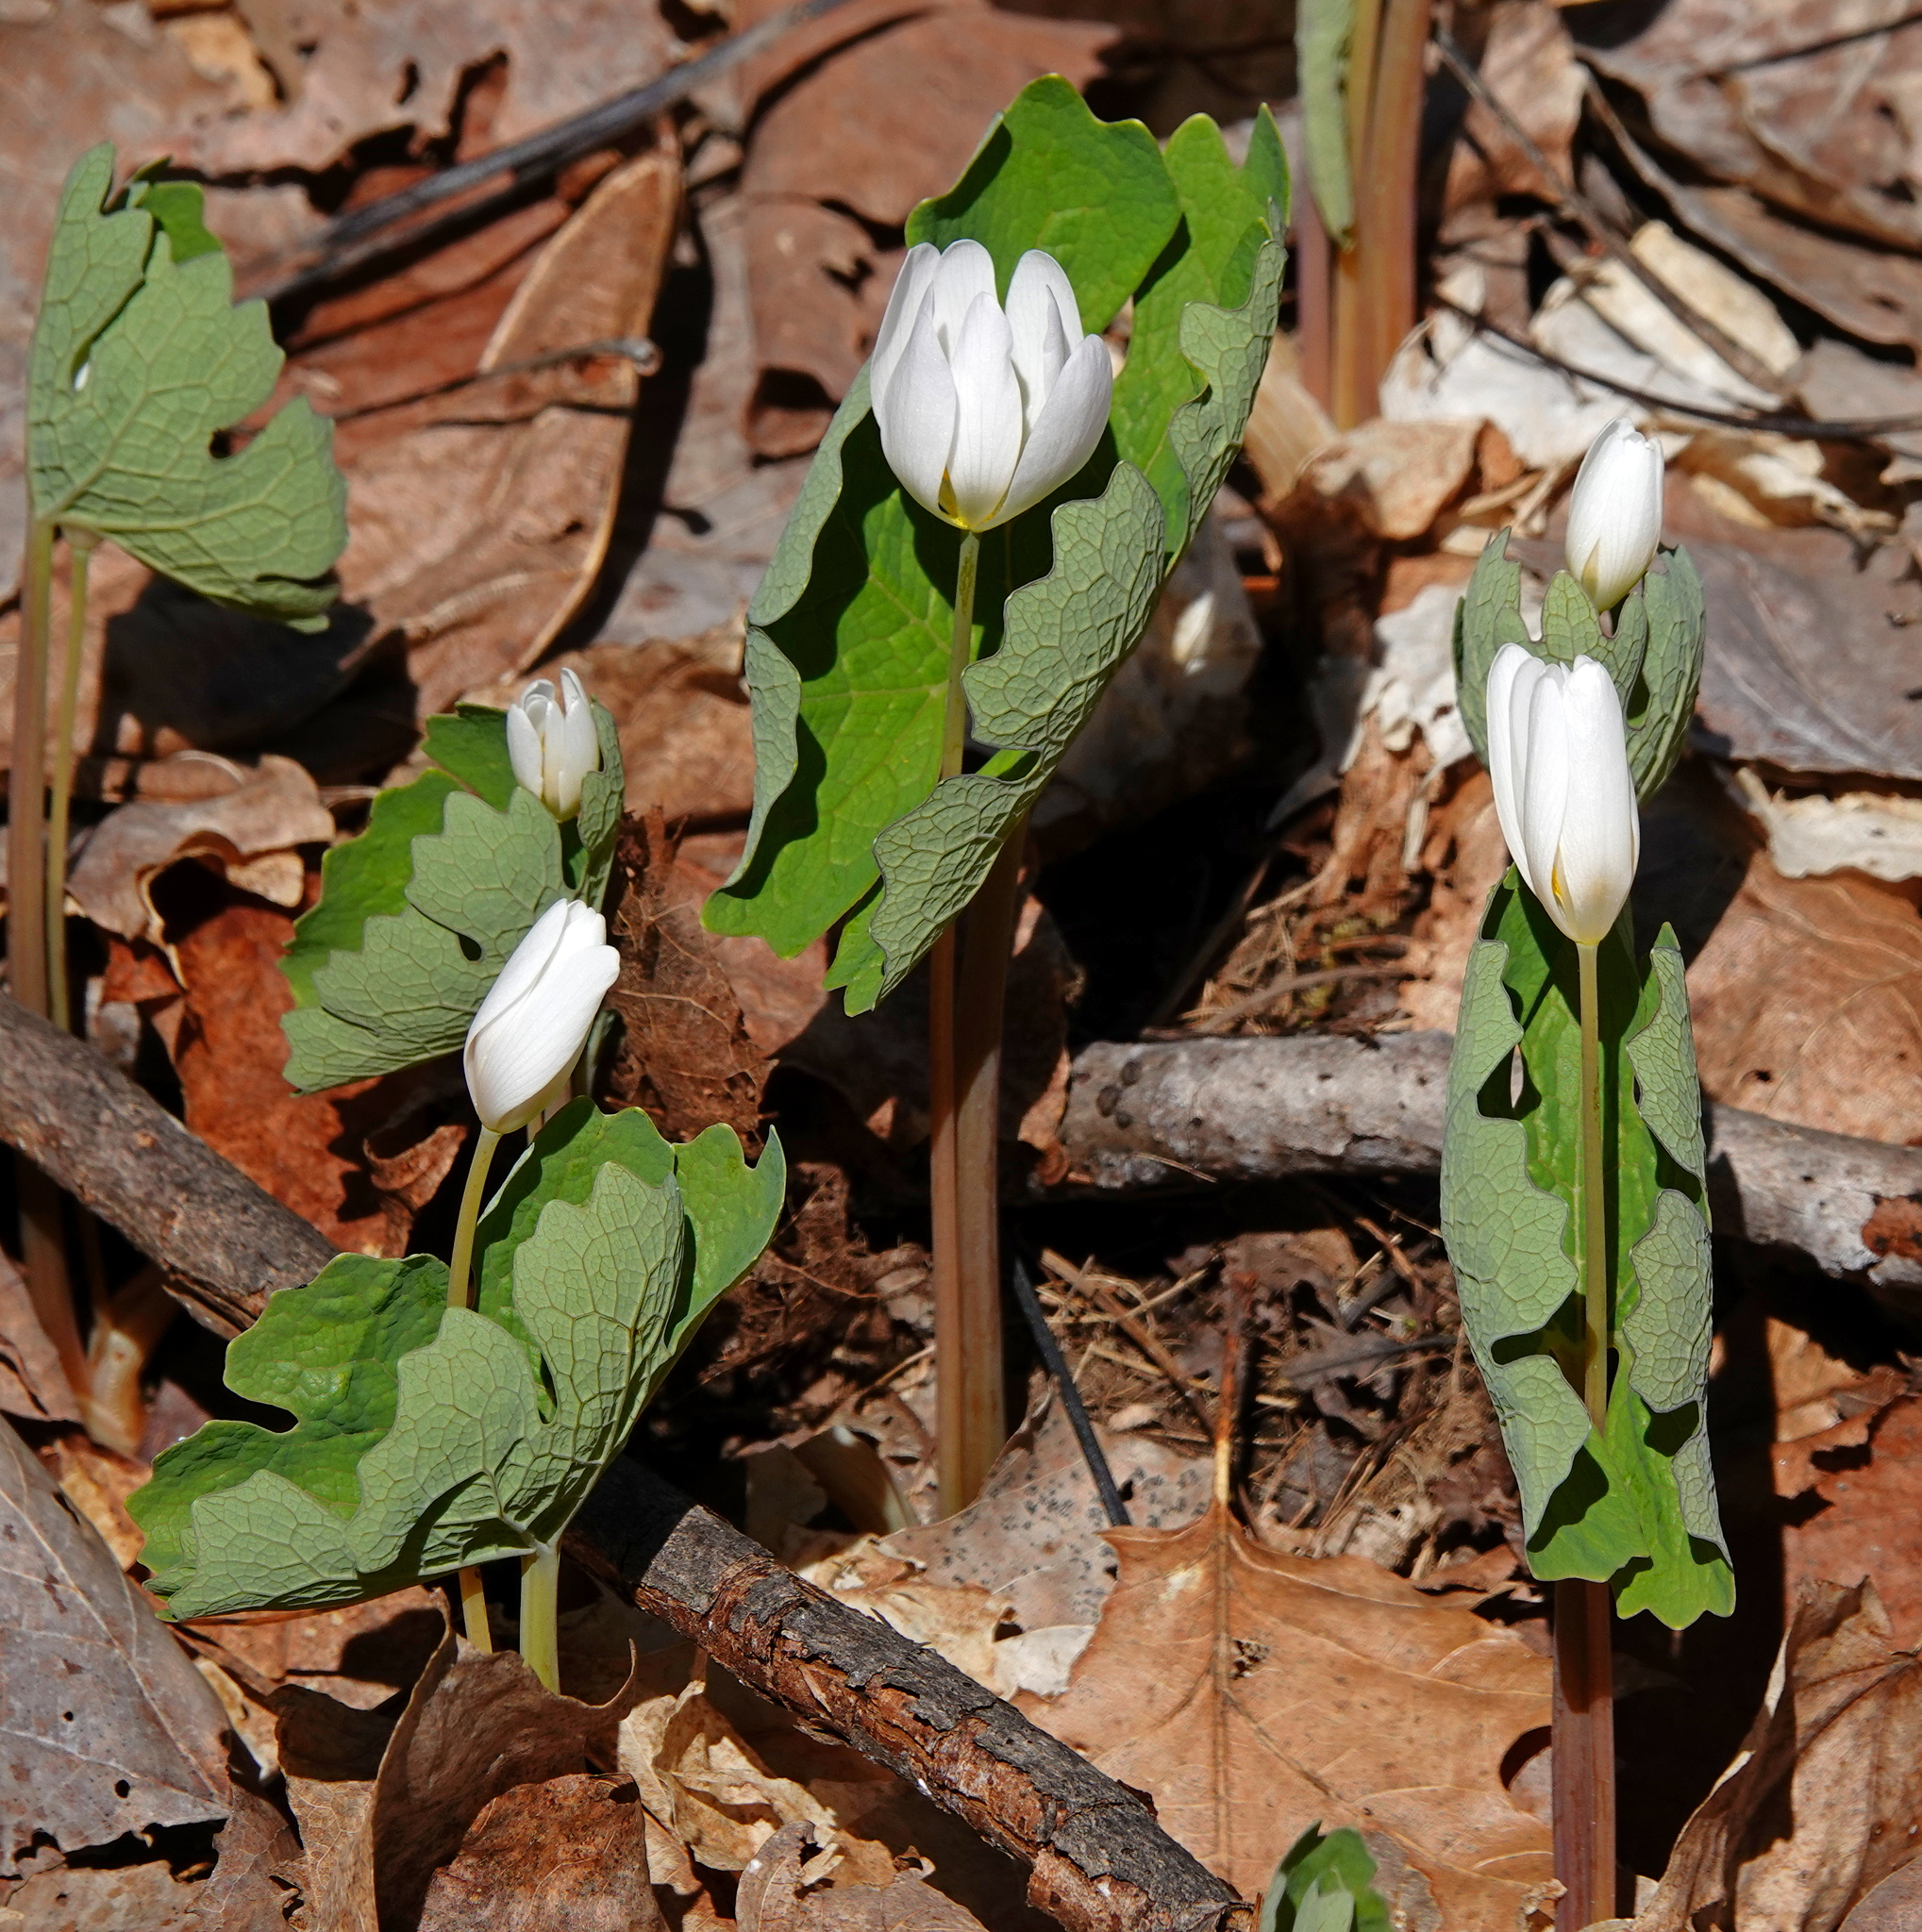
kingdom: Plantae
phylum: Tracheophyta
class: Magnoliopsida
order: Ranunculales
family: Papaveraceae
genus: Sanguinaria
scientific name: Sanguinaria canadensis
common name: Bloodroot
